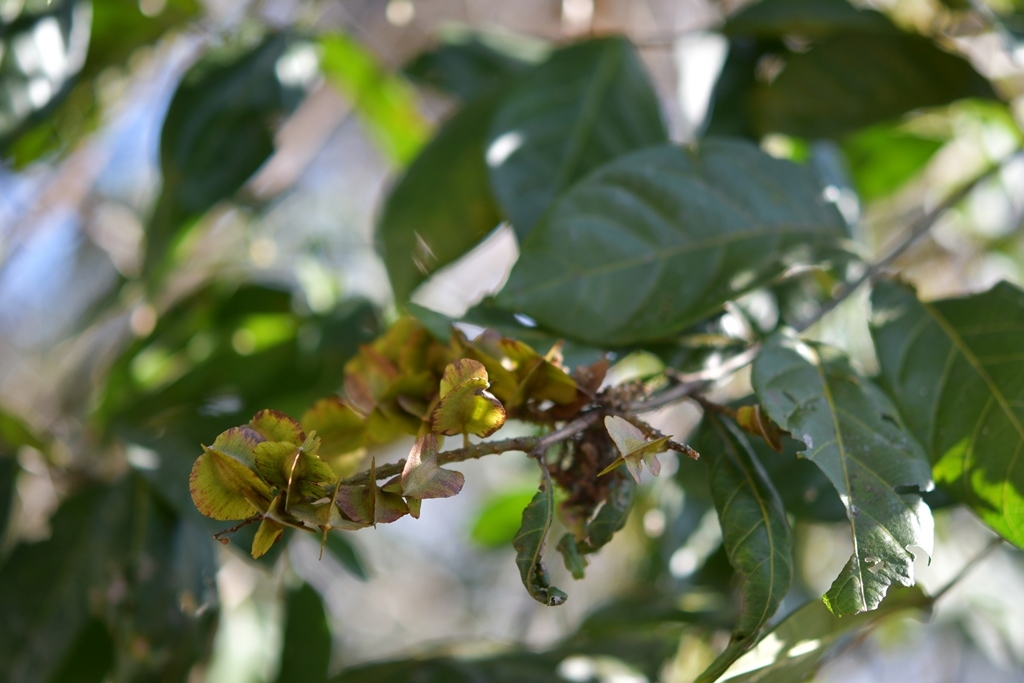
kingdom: Plantae
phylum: Tracheophyta
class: Magnoliopsida
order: Myrtales
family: Combretaceae
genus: Combretum
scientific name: Combretum farinosum
